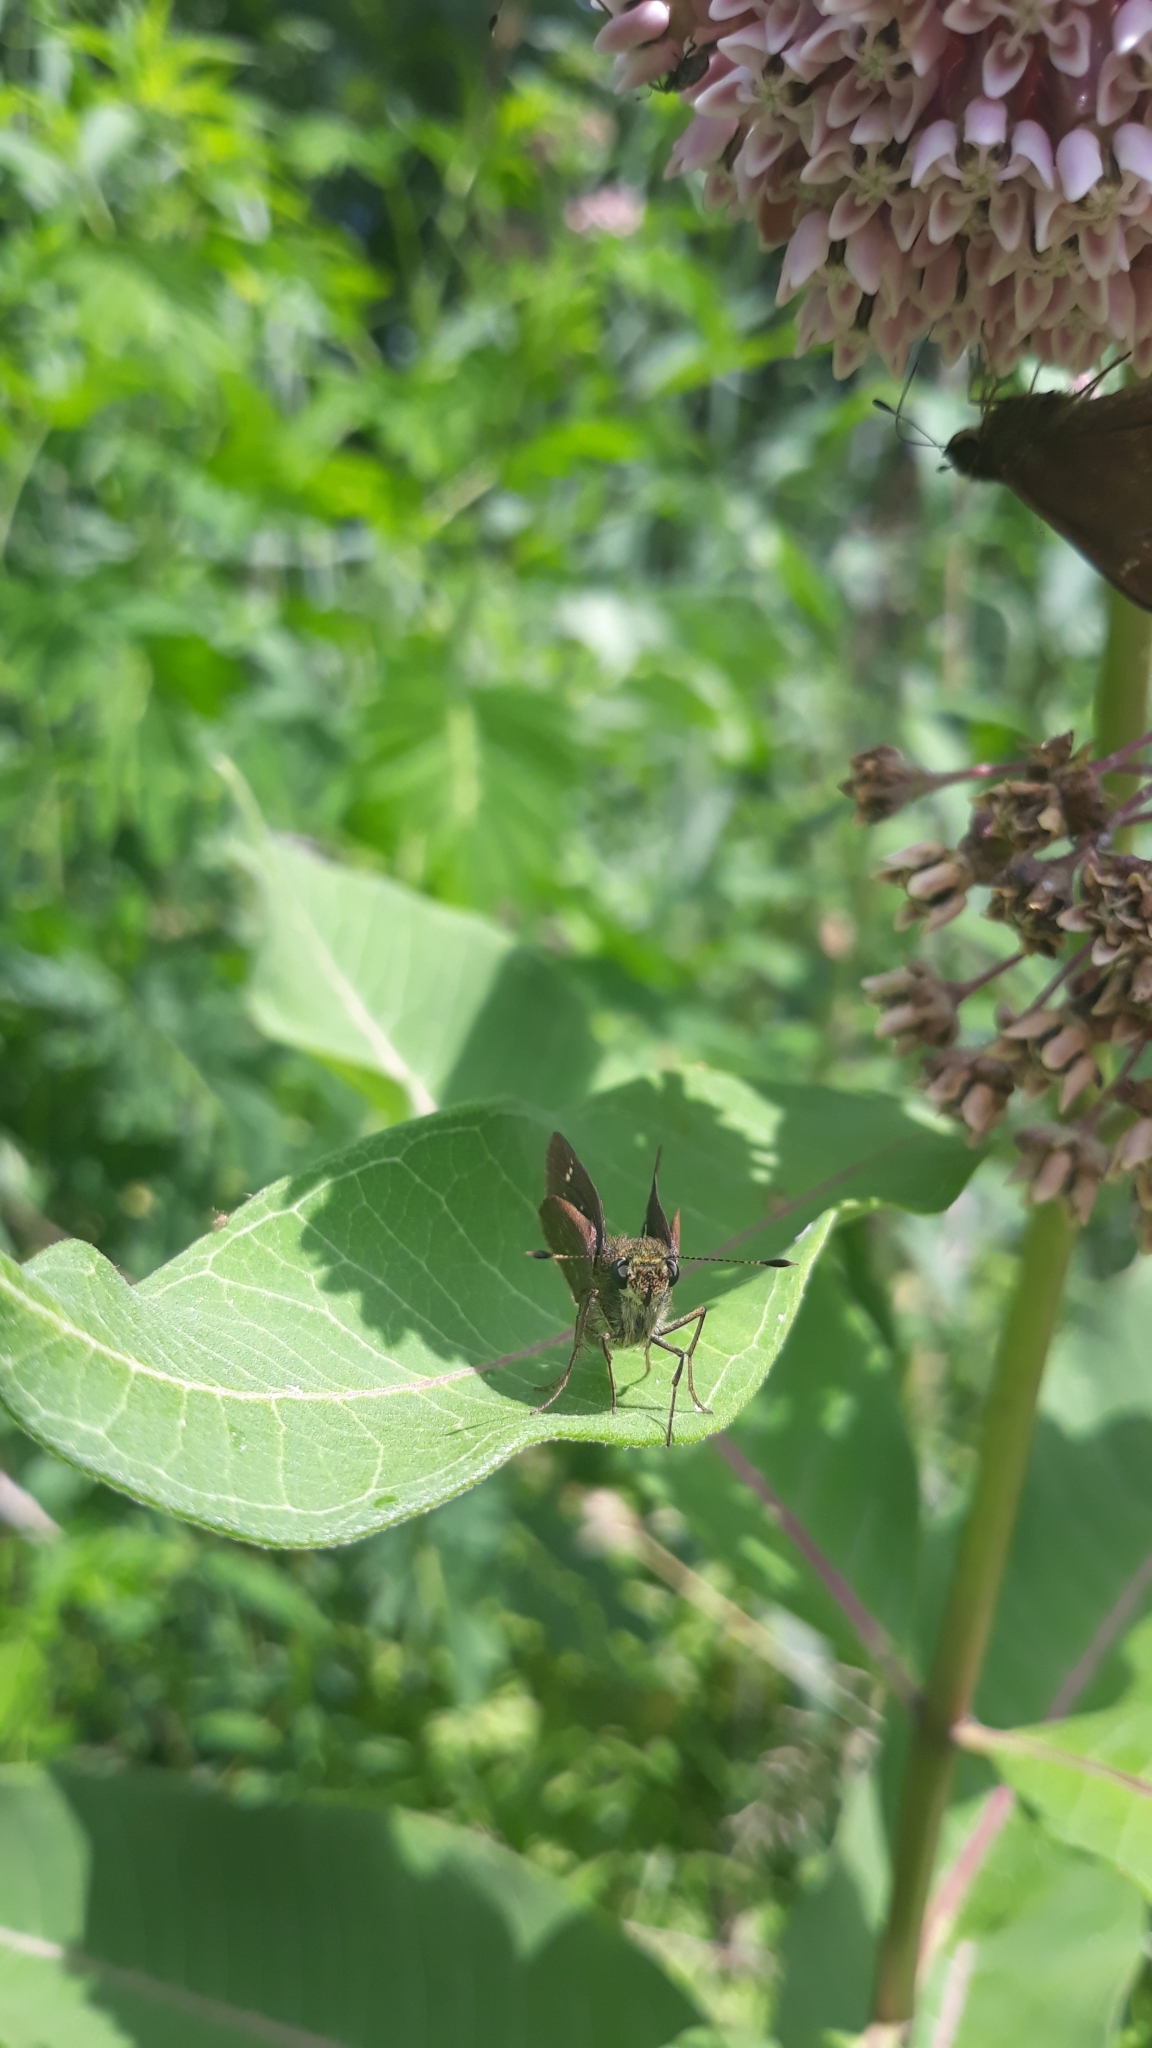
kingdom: Animalia
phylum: Arthropoda
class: Insecta
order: Lepidoptera
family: Hesperiidae
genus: Vernia
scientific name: Vernia verna
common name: Little glassywing
